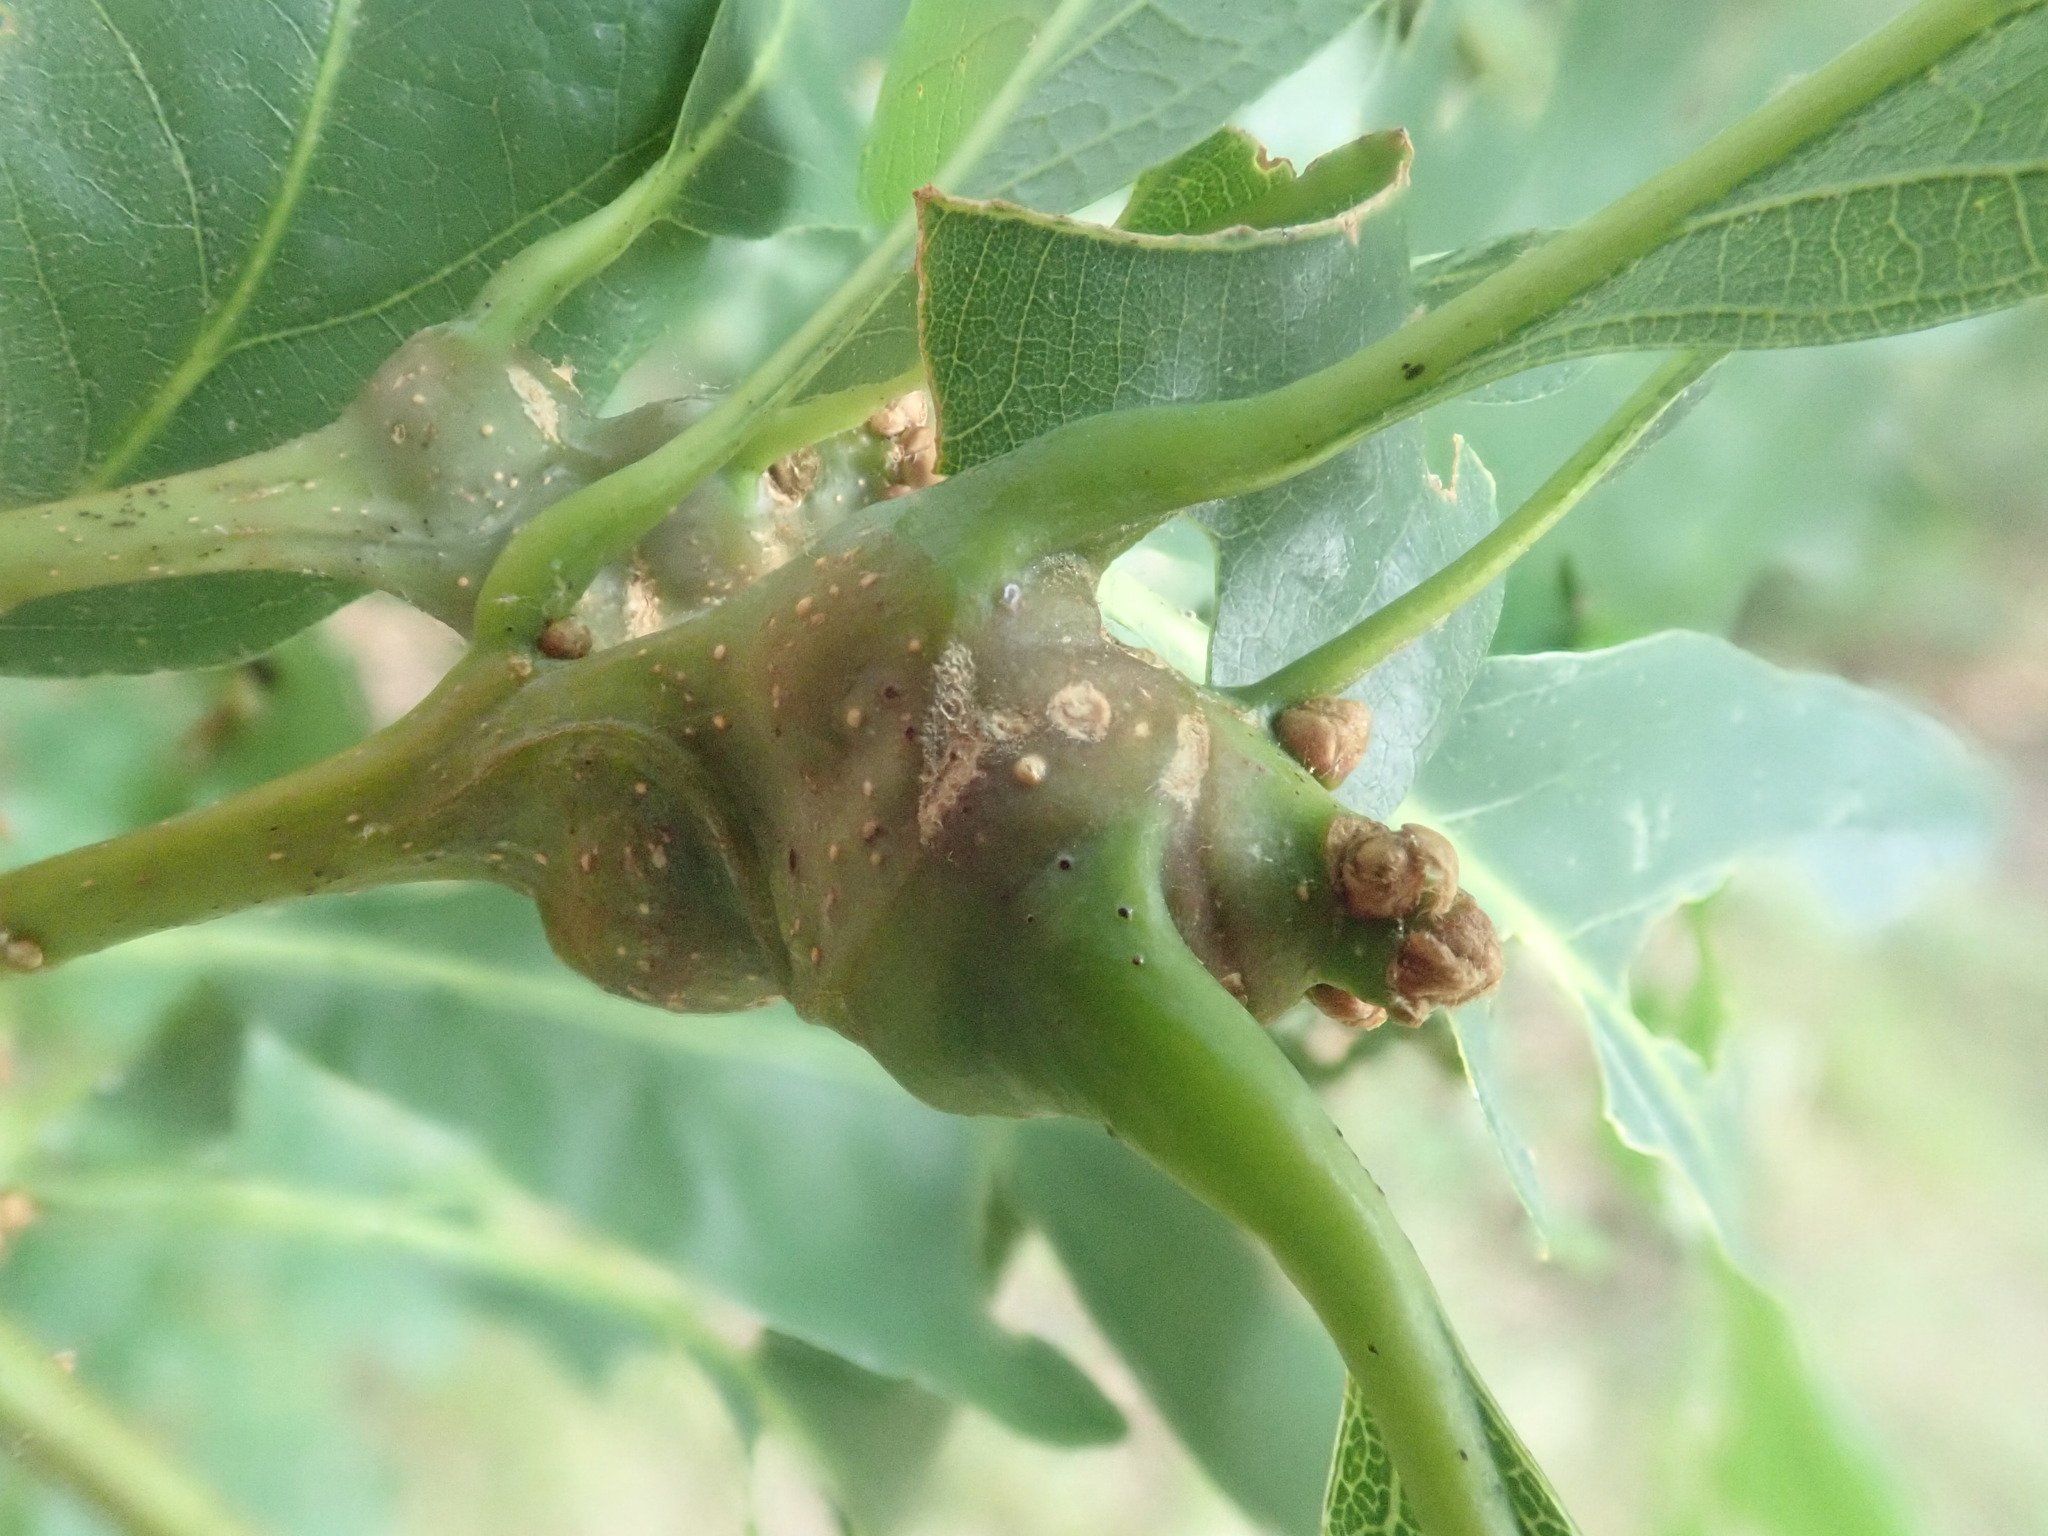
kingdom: Animalia
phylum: Arthropoda
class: Insecta
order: Hymenoptera
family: Cynipidae
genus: Neuroterus
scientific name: Neuroterus quercusbaccarum
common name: Common spangle gall
